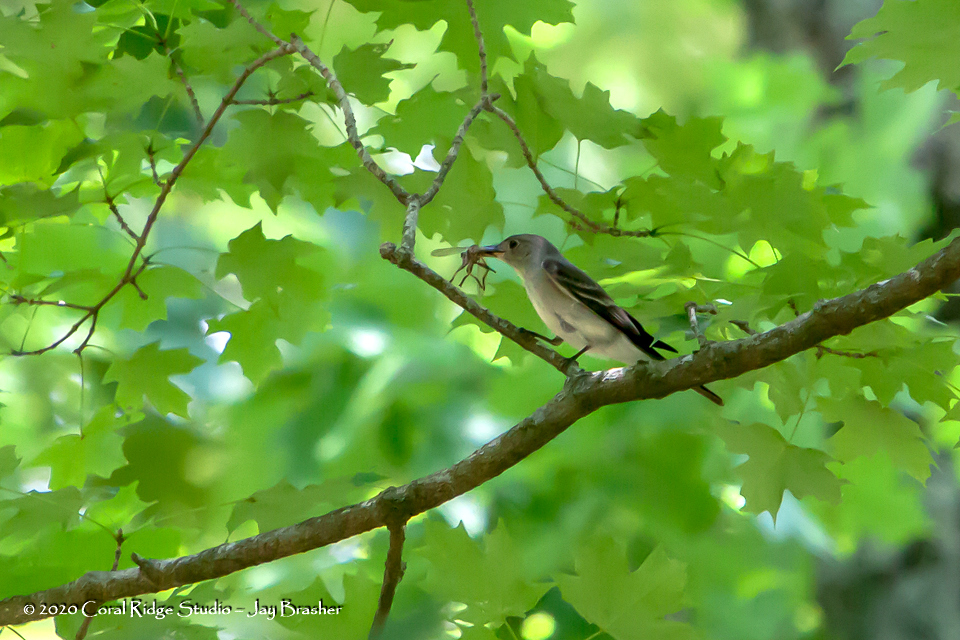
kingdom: Animalia
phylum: Chordata
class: Aves
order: Passeriformes
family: Tyrannidae
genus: Contopus
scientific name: Contopus virens
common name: Eastern wood-pewee
